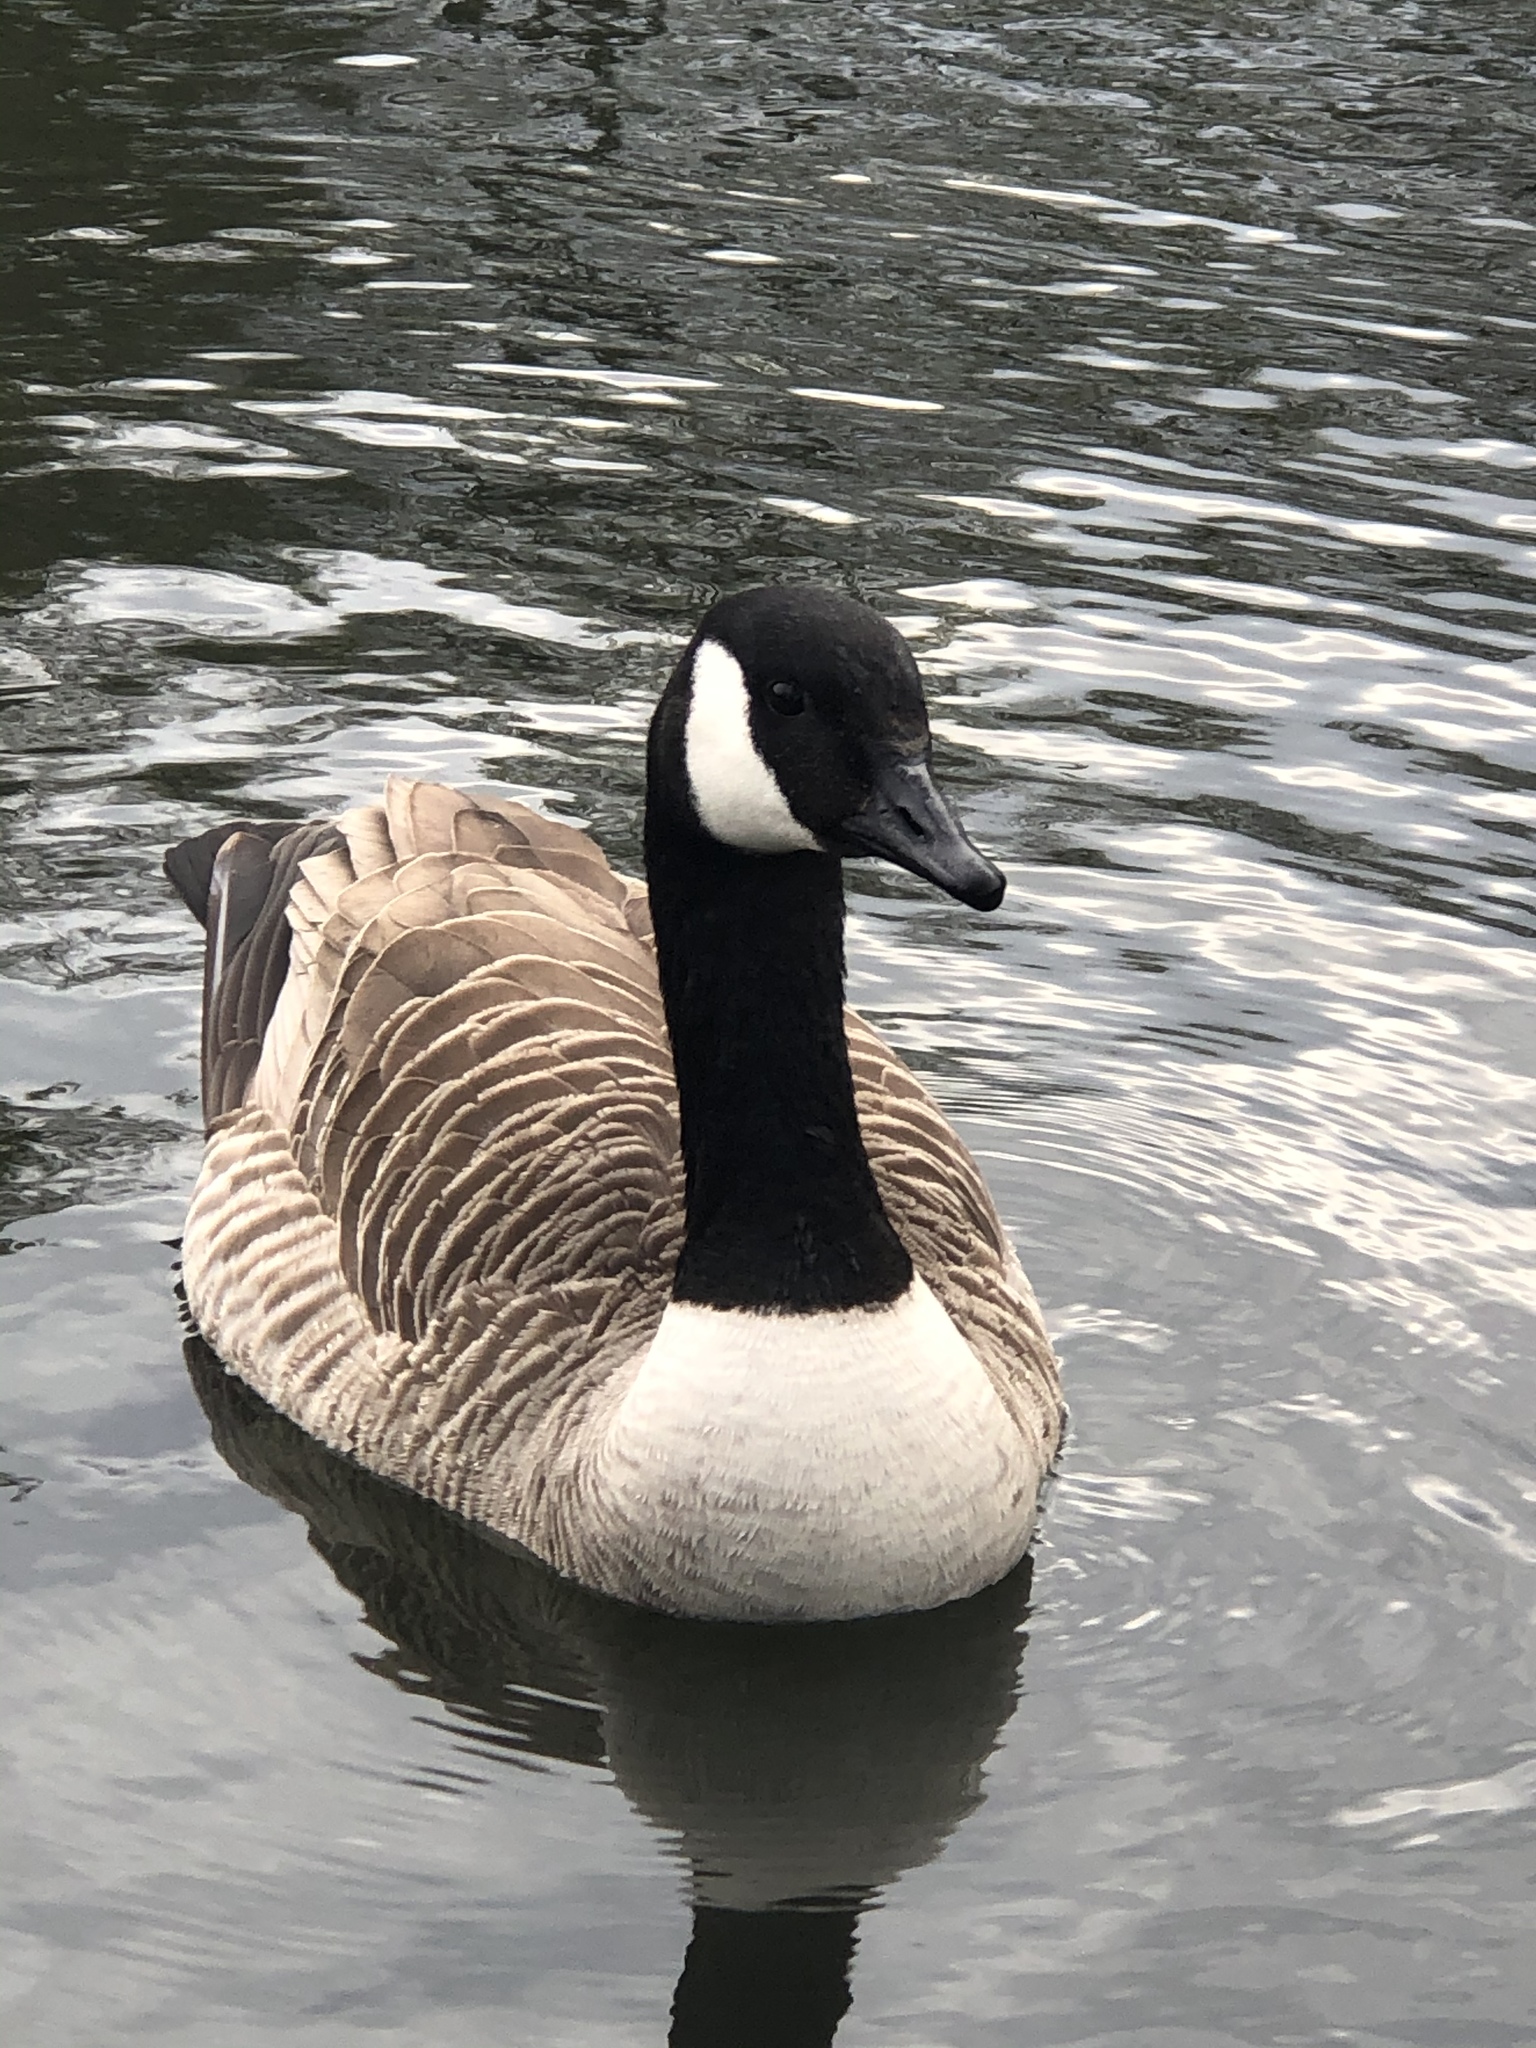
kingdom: Animalia
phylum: Chordata
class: Aves
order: Anseriformes
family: Anatidae
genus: Branta
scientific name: Branta canadensis
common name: Canada goose
